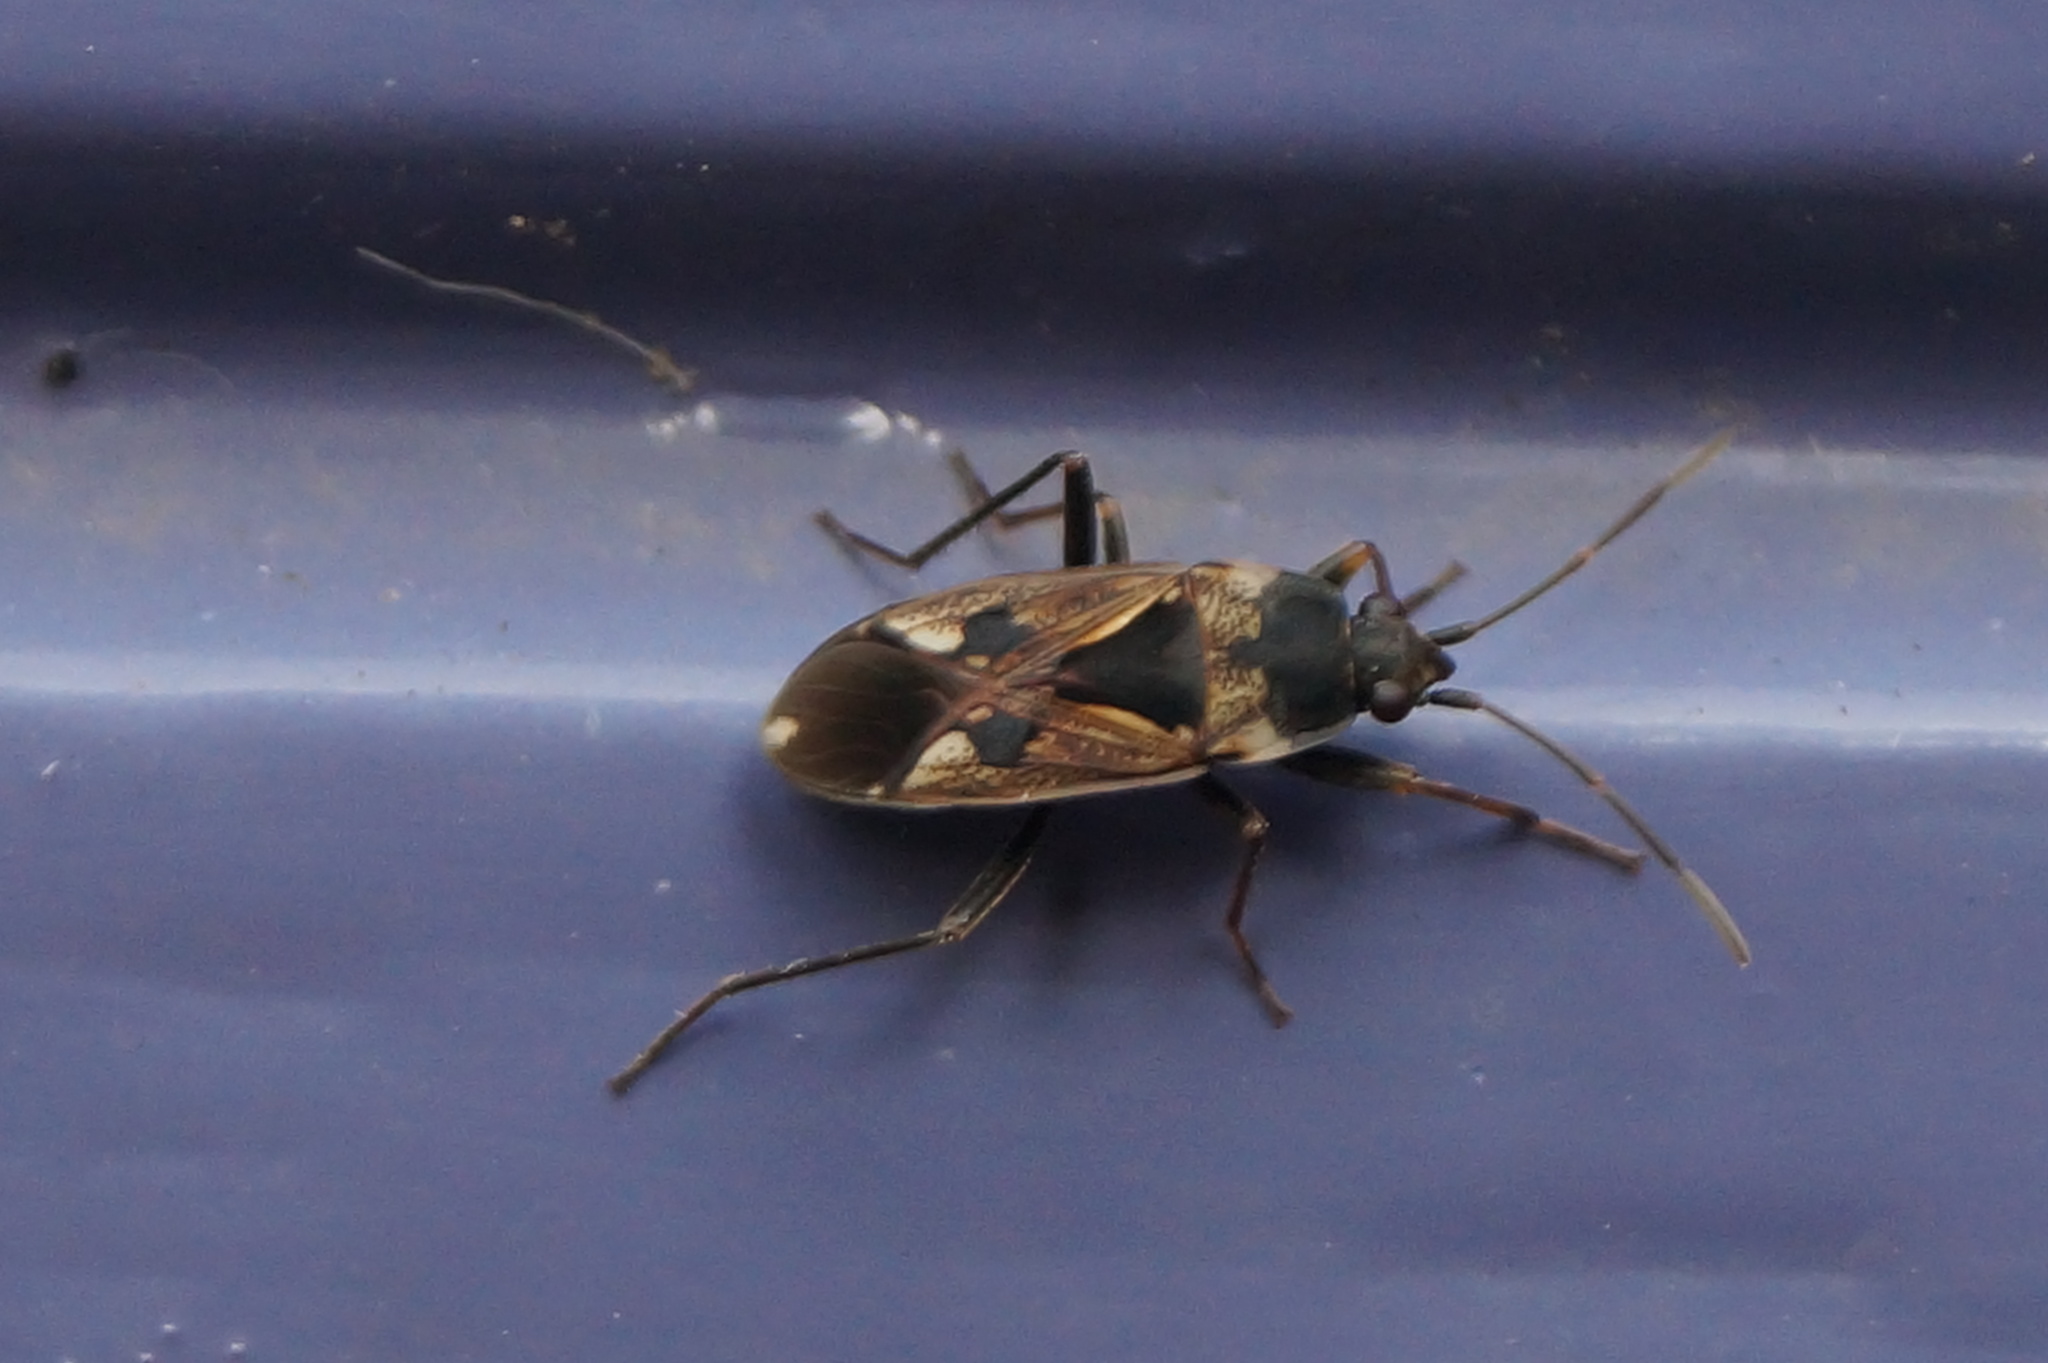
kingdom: Animalia
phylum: Arthropoda
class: Insecta
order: Hemiptera
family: Rhyparochromidae
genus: Rhyparochromus
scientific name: Rhyparochromus vulgaris
